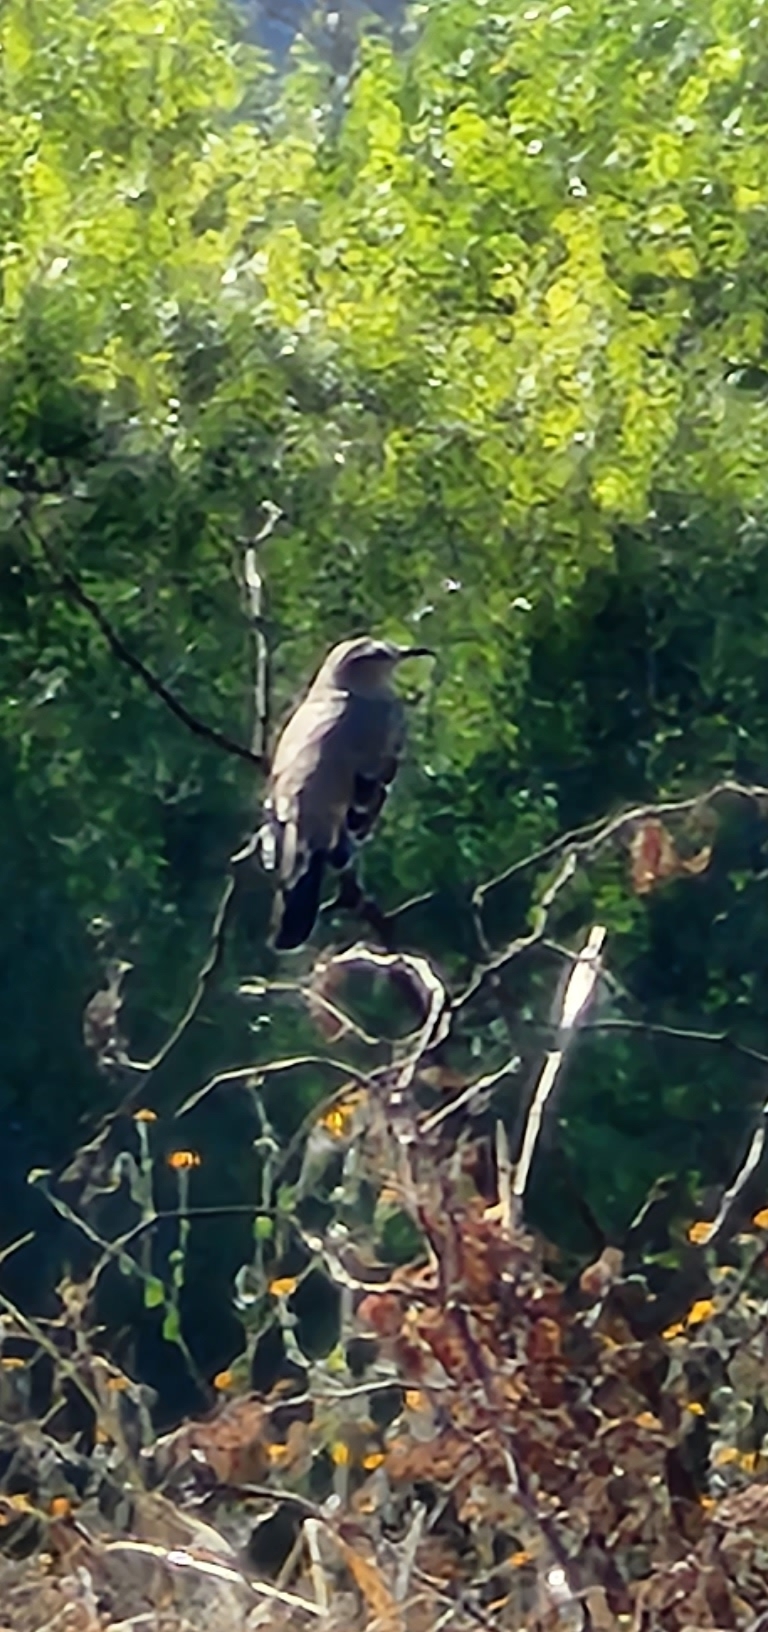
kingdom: Animalia
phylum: Chordata
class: Aves
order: Passeriformes
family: Mimidae
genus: Mimus
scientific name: Mimus patagonicus
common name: Patagonian mockingbird
